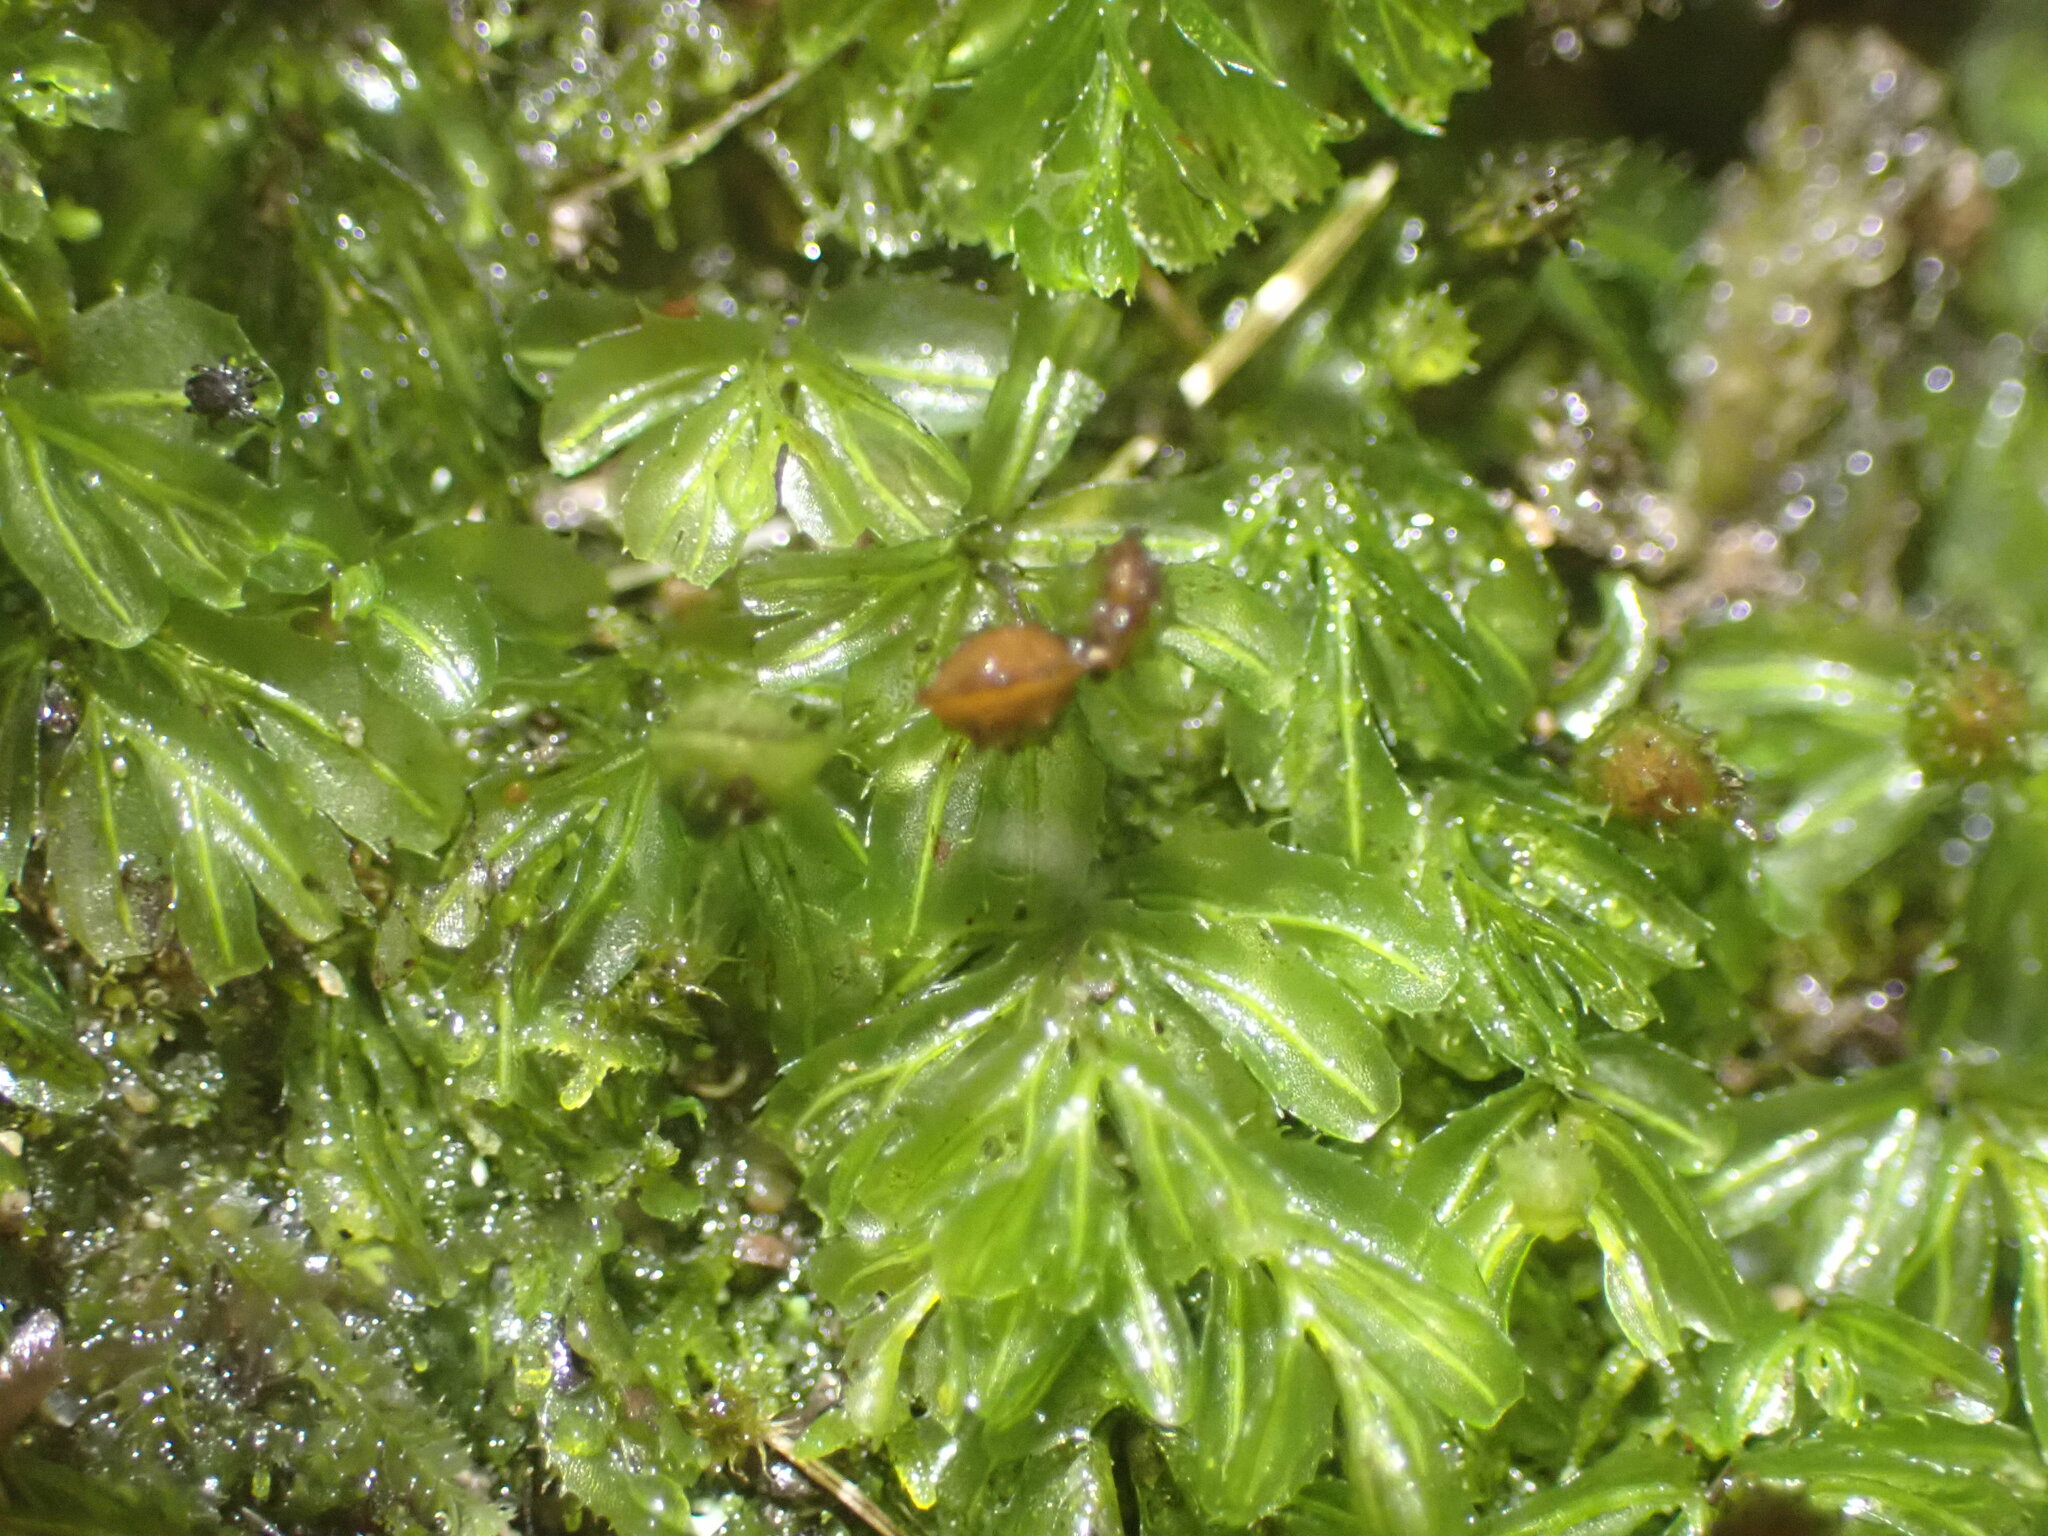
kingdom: Plantae
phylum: Tracheophyta
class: Polypodiopsida
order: Hymenophyllales
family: Hymenophyllaceae
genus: Hymenophyllum
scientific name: Hymenophyllum minimum
